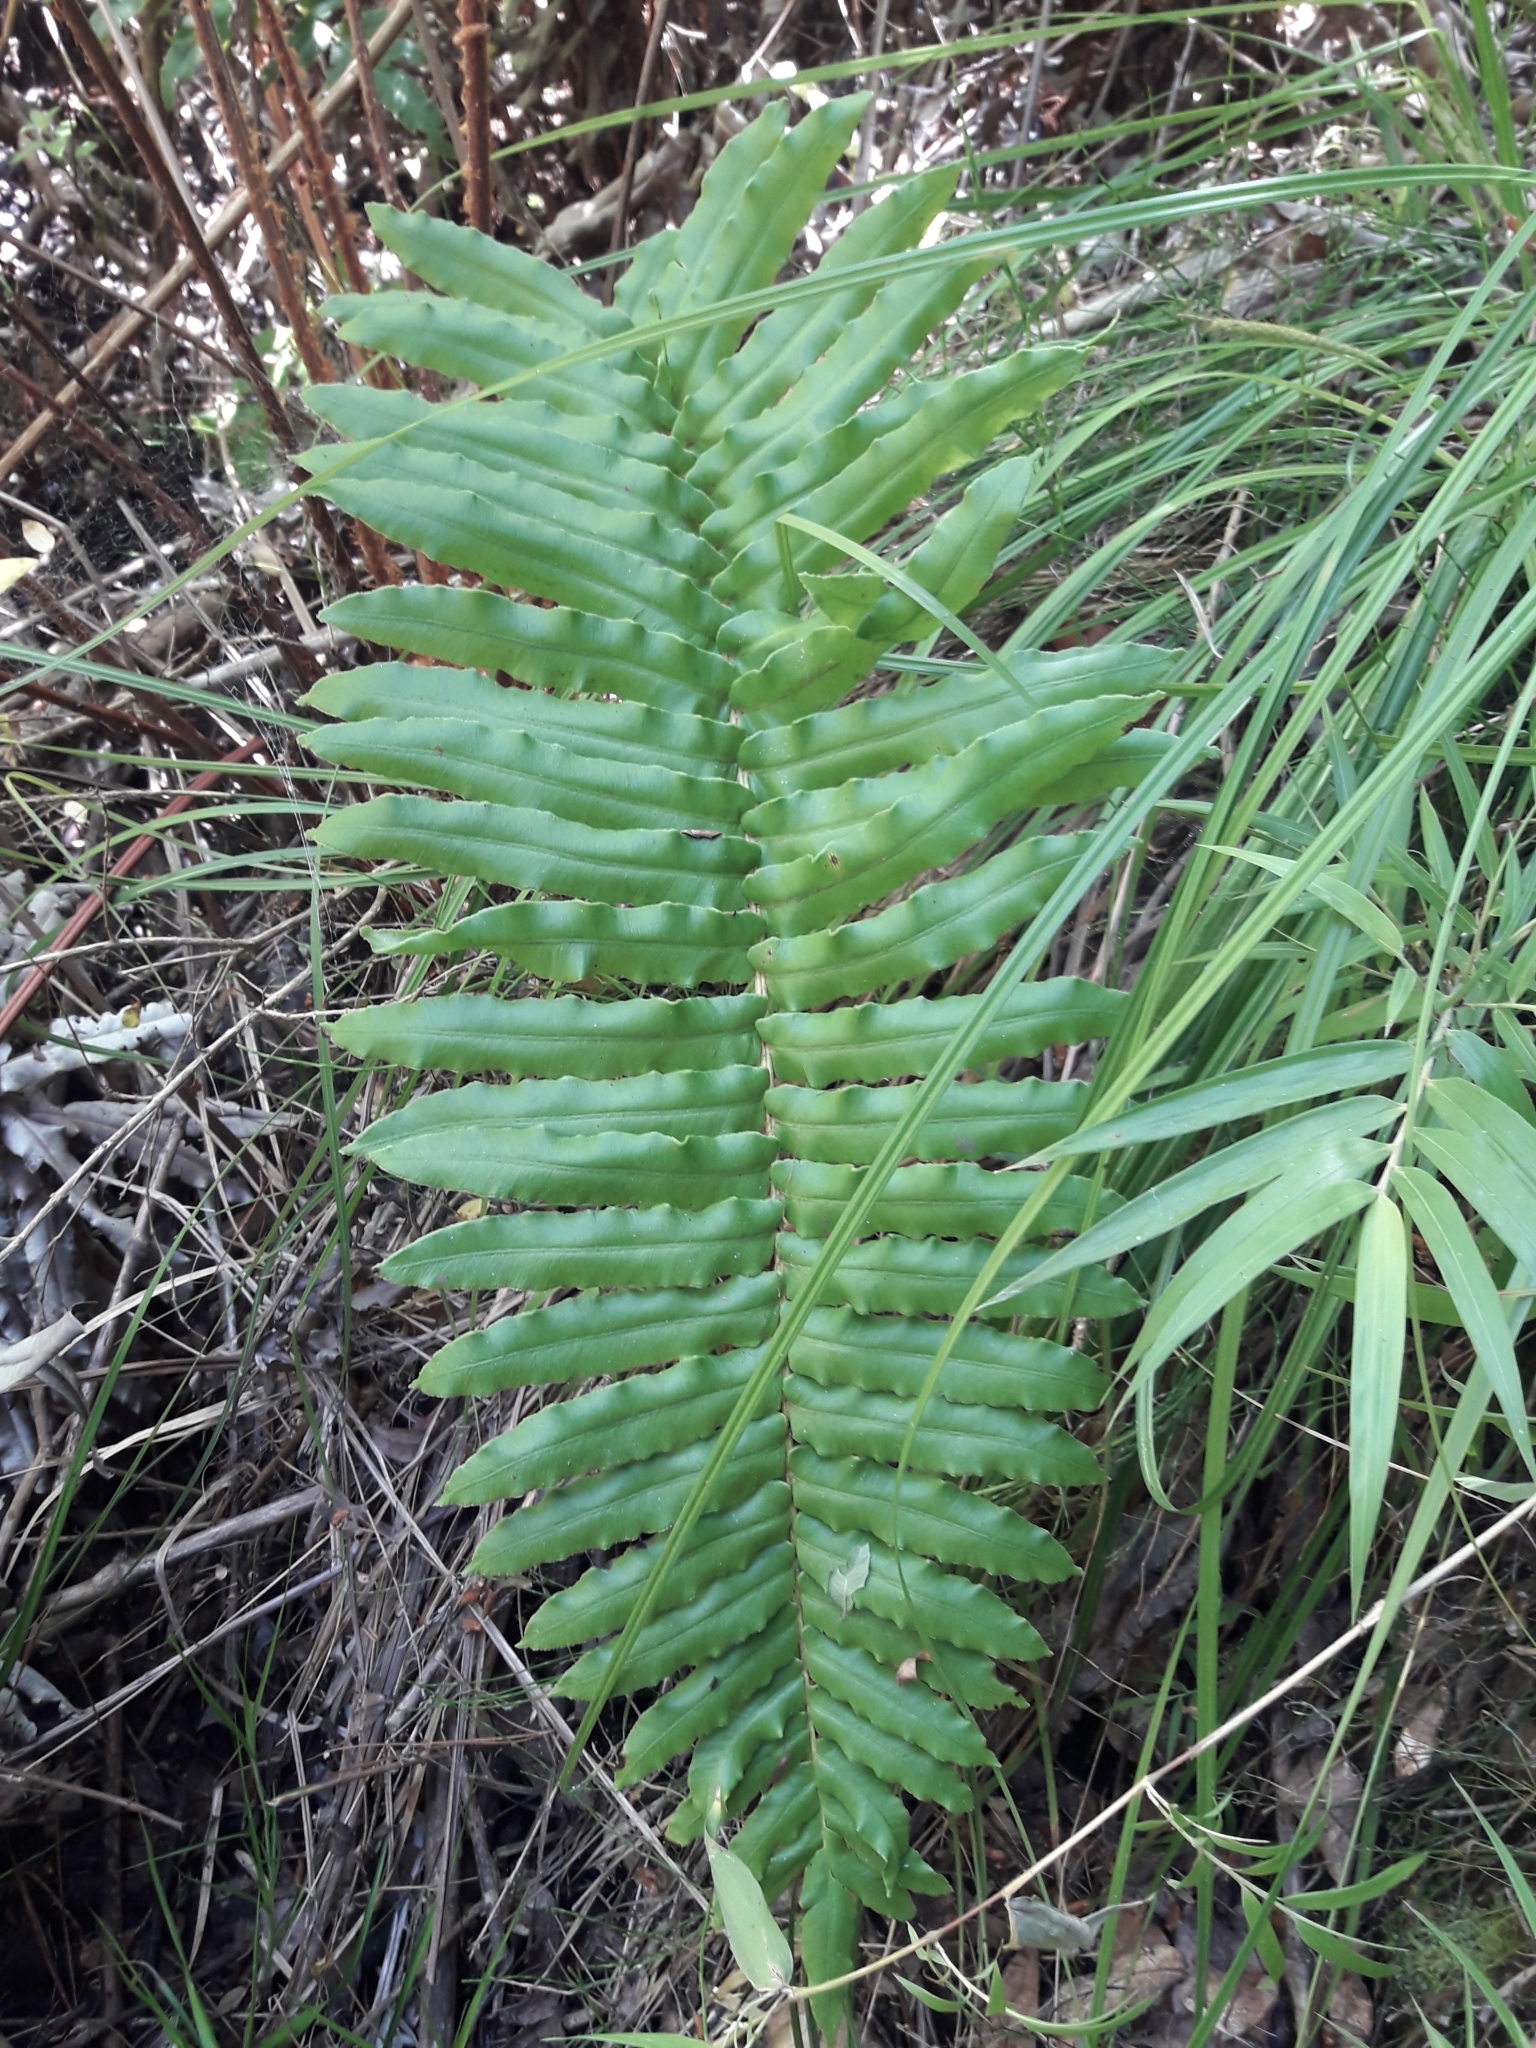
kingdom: Plantae
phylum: Tracheophyta
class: Polypodiopsida
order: Polypodiales
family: Blechnaceae
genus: Parablechnum
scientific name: Parablechnum chilense
